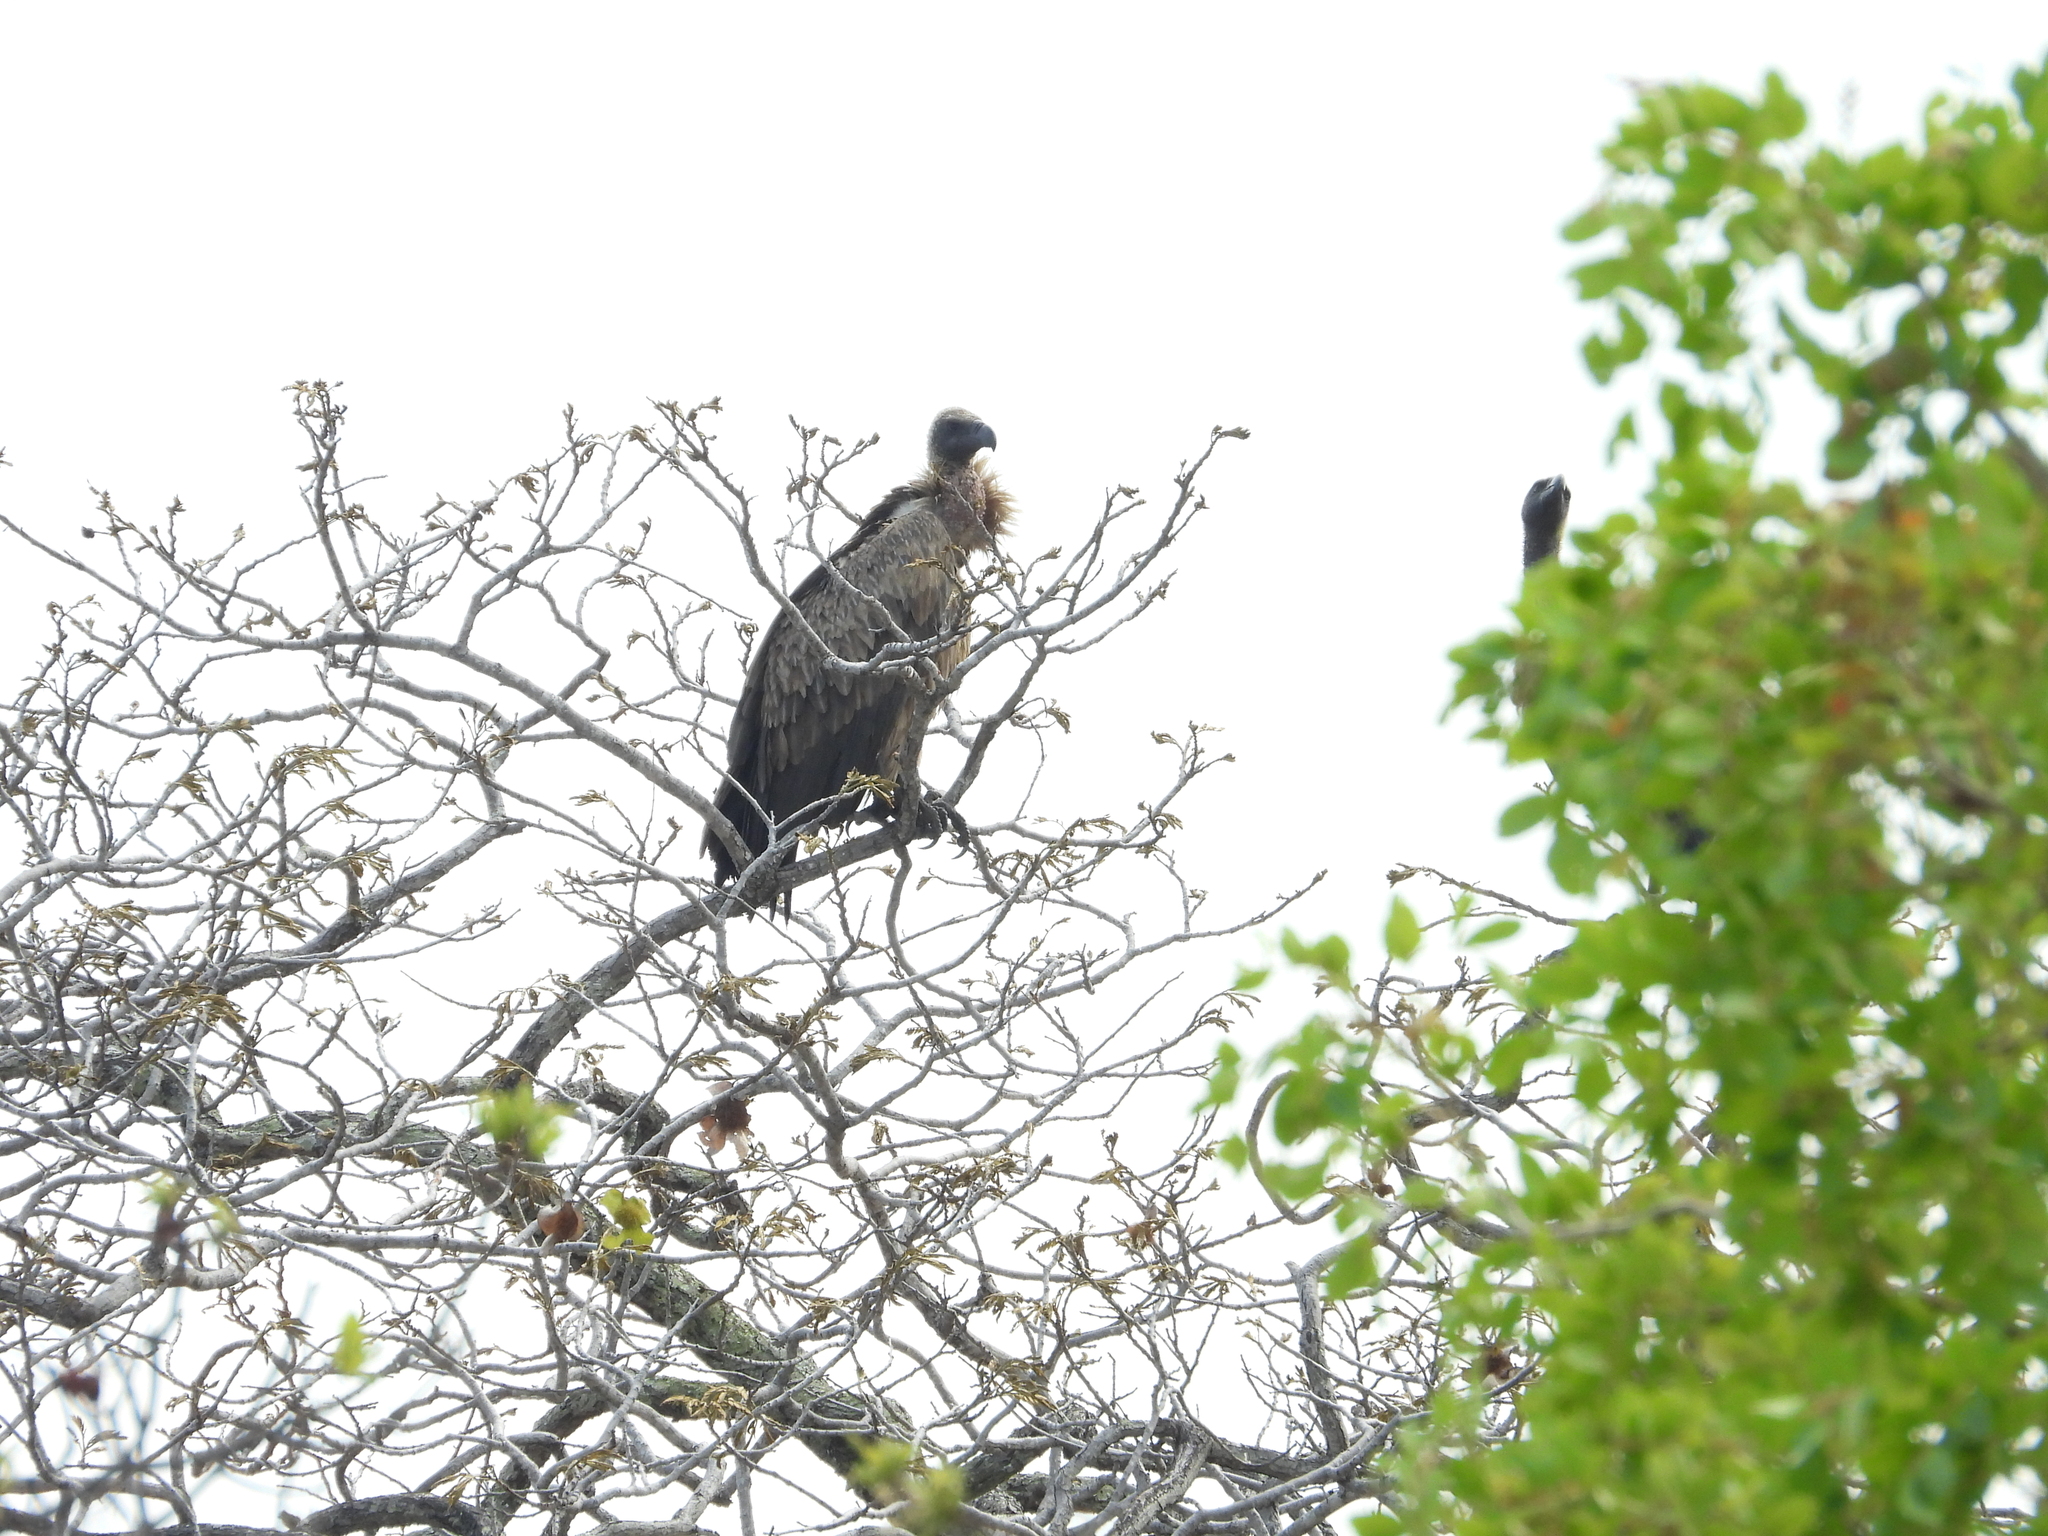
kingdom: Animalia
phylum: Chordata
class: Aves
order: Accipitriformes
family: Accipitridae
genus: Gyps
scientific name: Gyps africanus
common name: White-backed vulture
